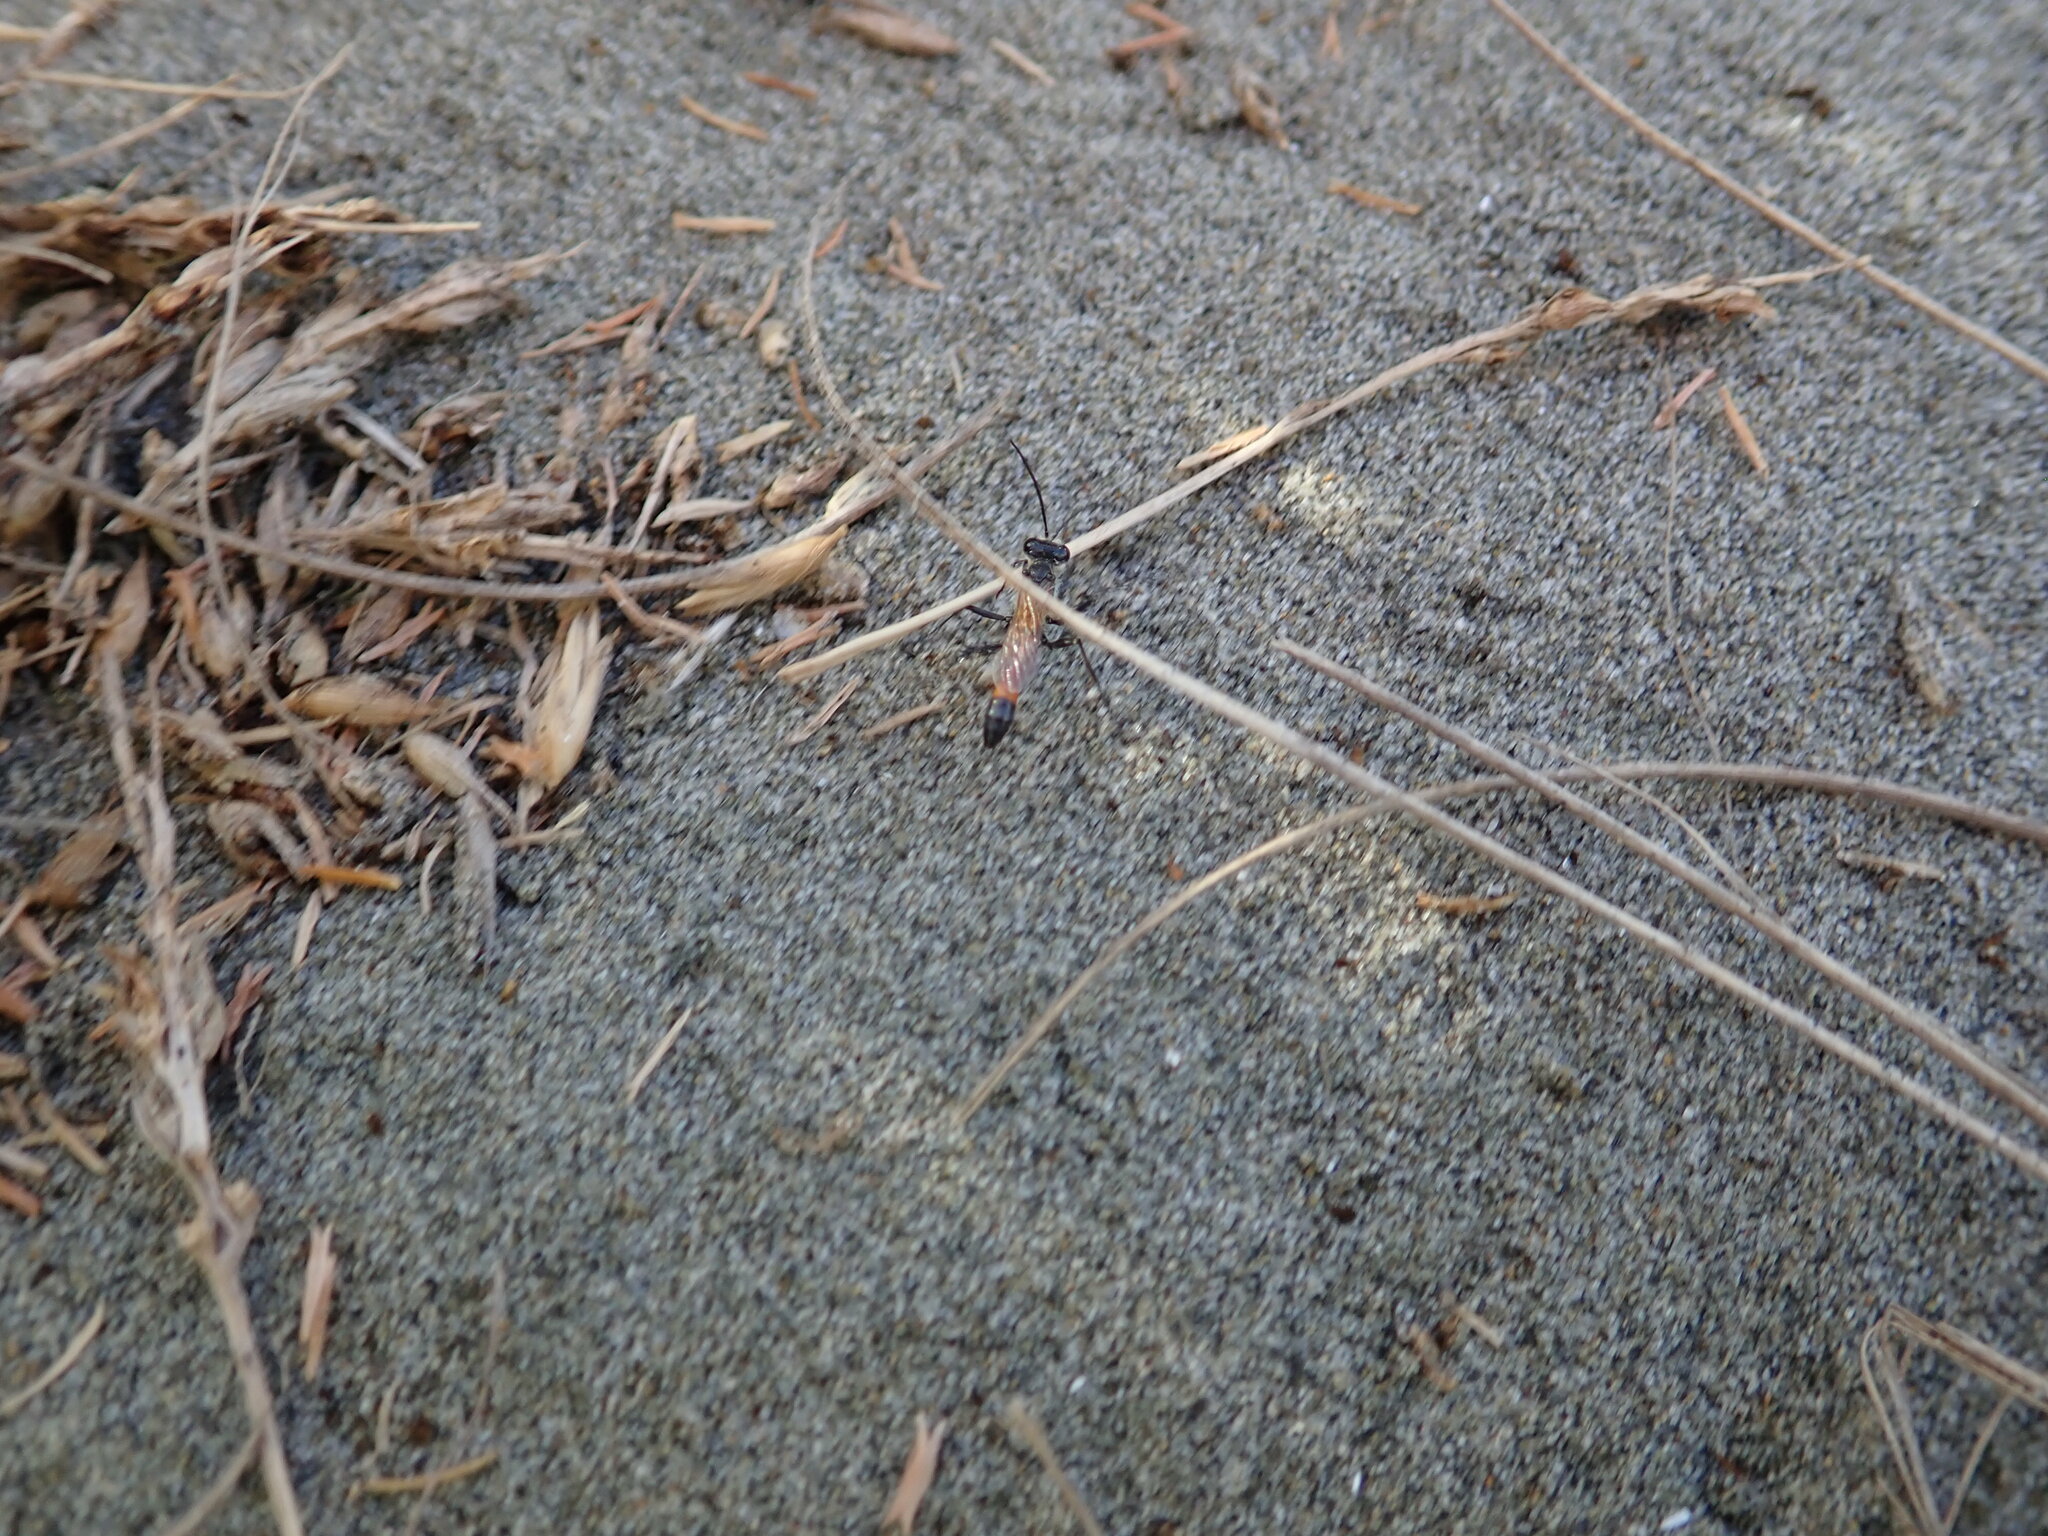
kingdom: Animalia
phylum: Arthropoda
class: Insecta
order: Hymenoptera
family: Sphecidae
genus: Podalonia
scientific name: Podalonia tydei
